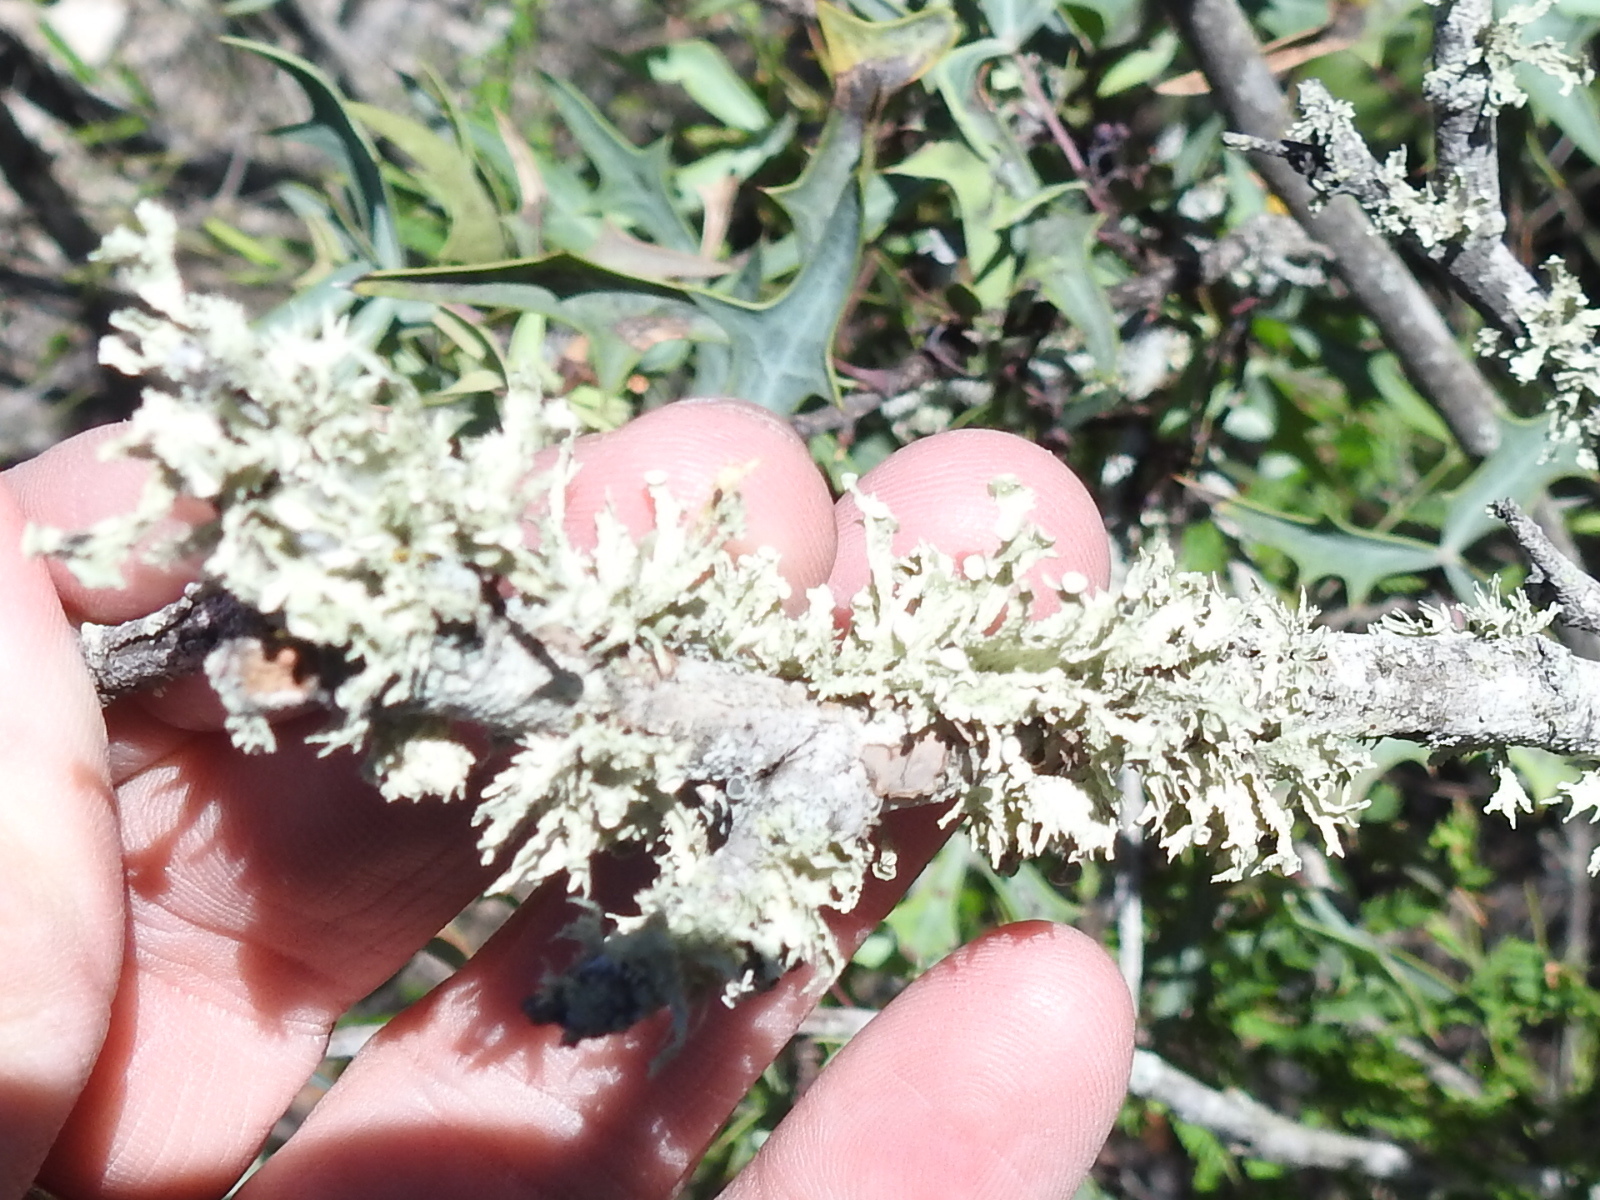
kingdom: Fungi
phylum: Ascomycota
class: Lecanoromycetes
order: Lecanorales
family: Ramalinaceae
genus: Ramalina
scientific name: Ramalina complanata
